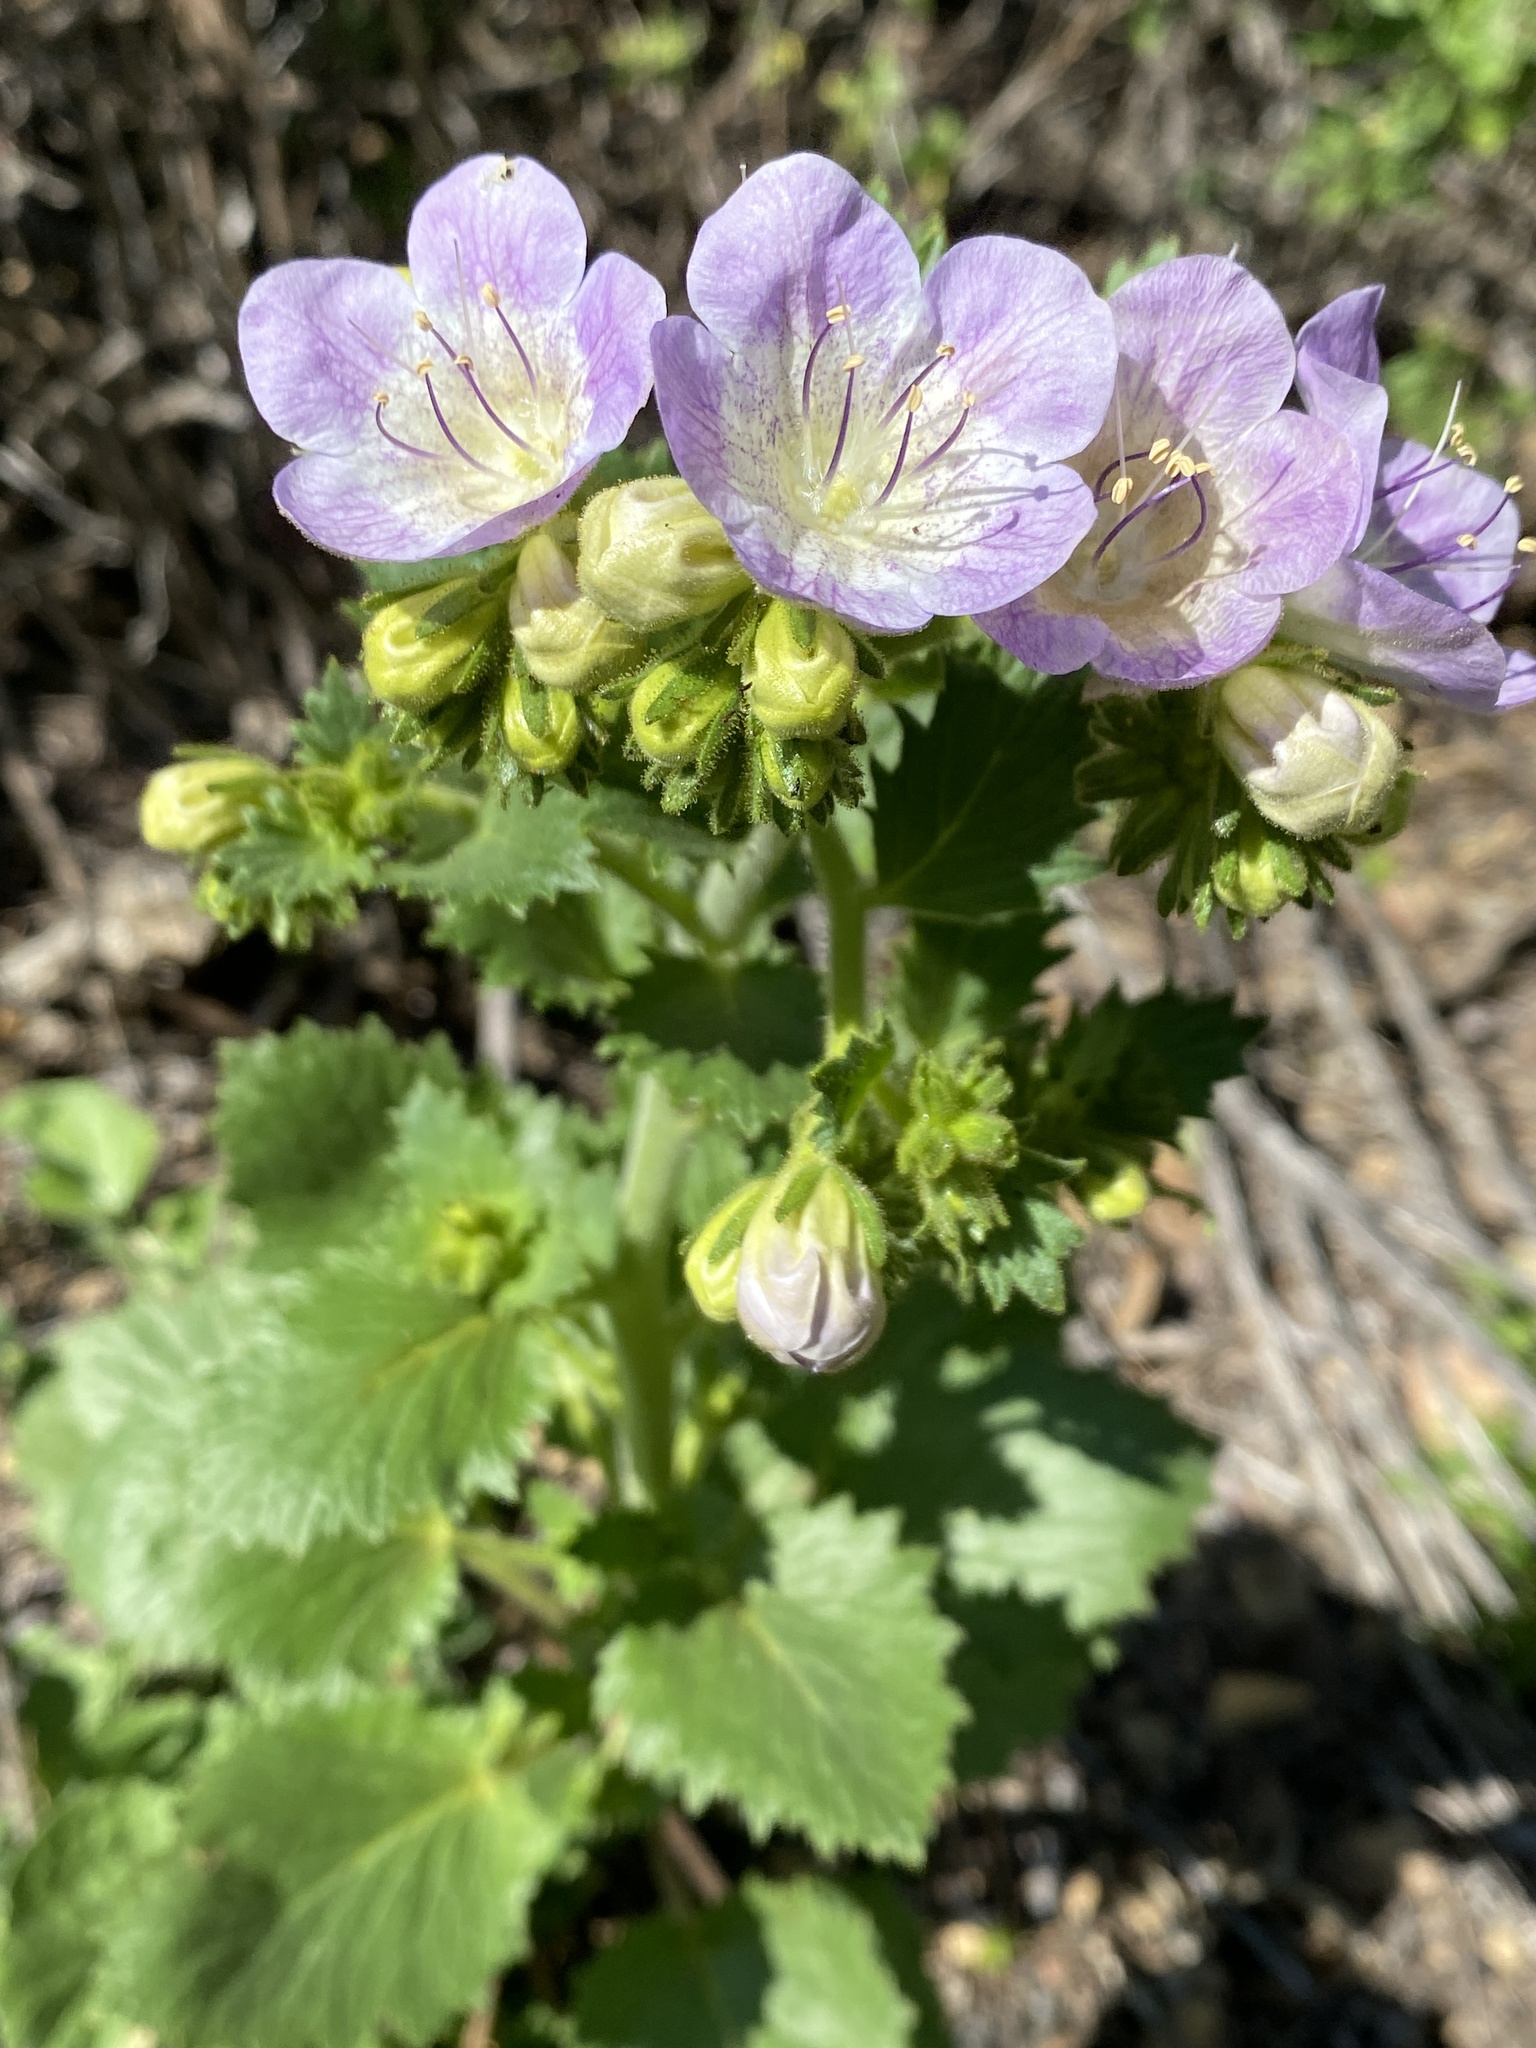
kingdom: Plantae
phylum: Tracheophyta
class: Magnoliopsida
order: Boraginales
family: Hydrophyllaceae
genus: Phacelia
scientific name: Phacelia grandiflora
